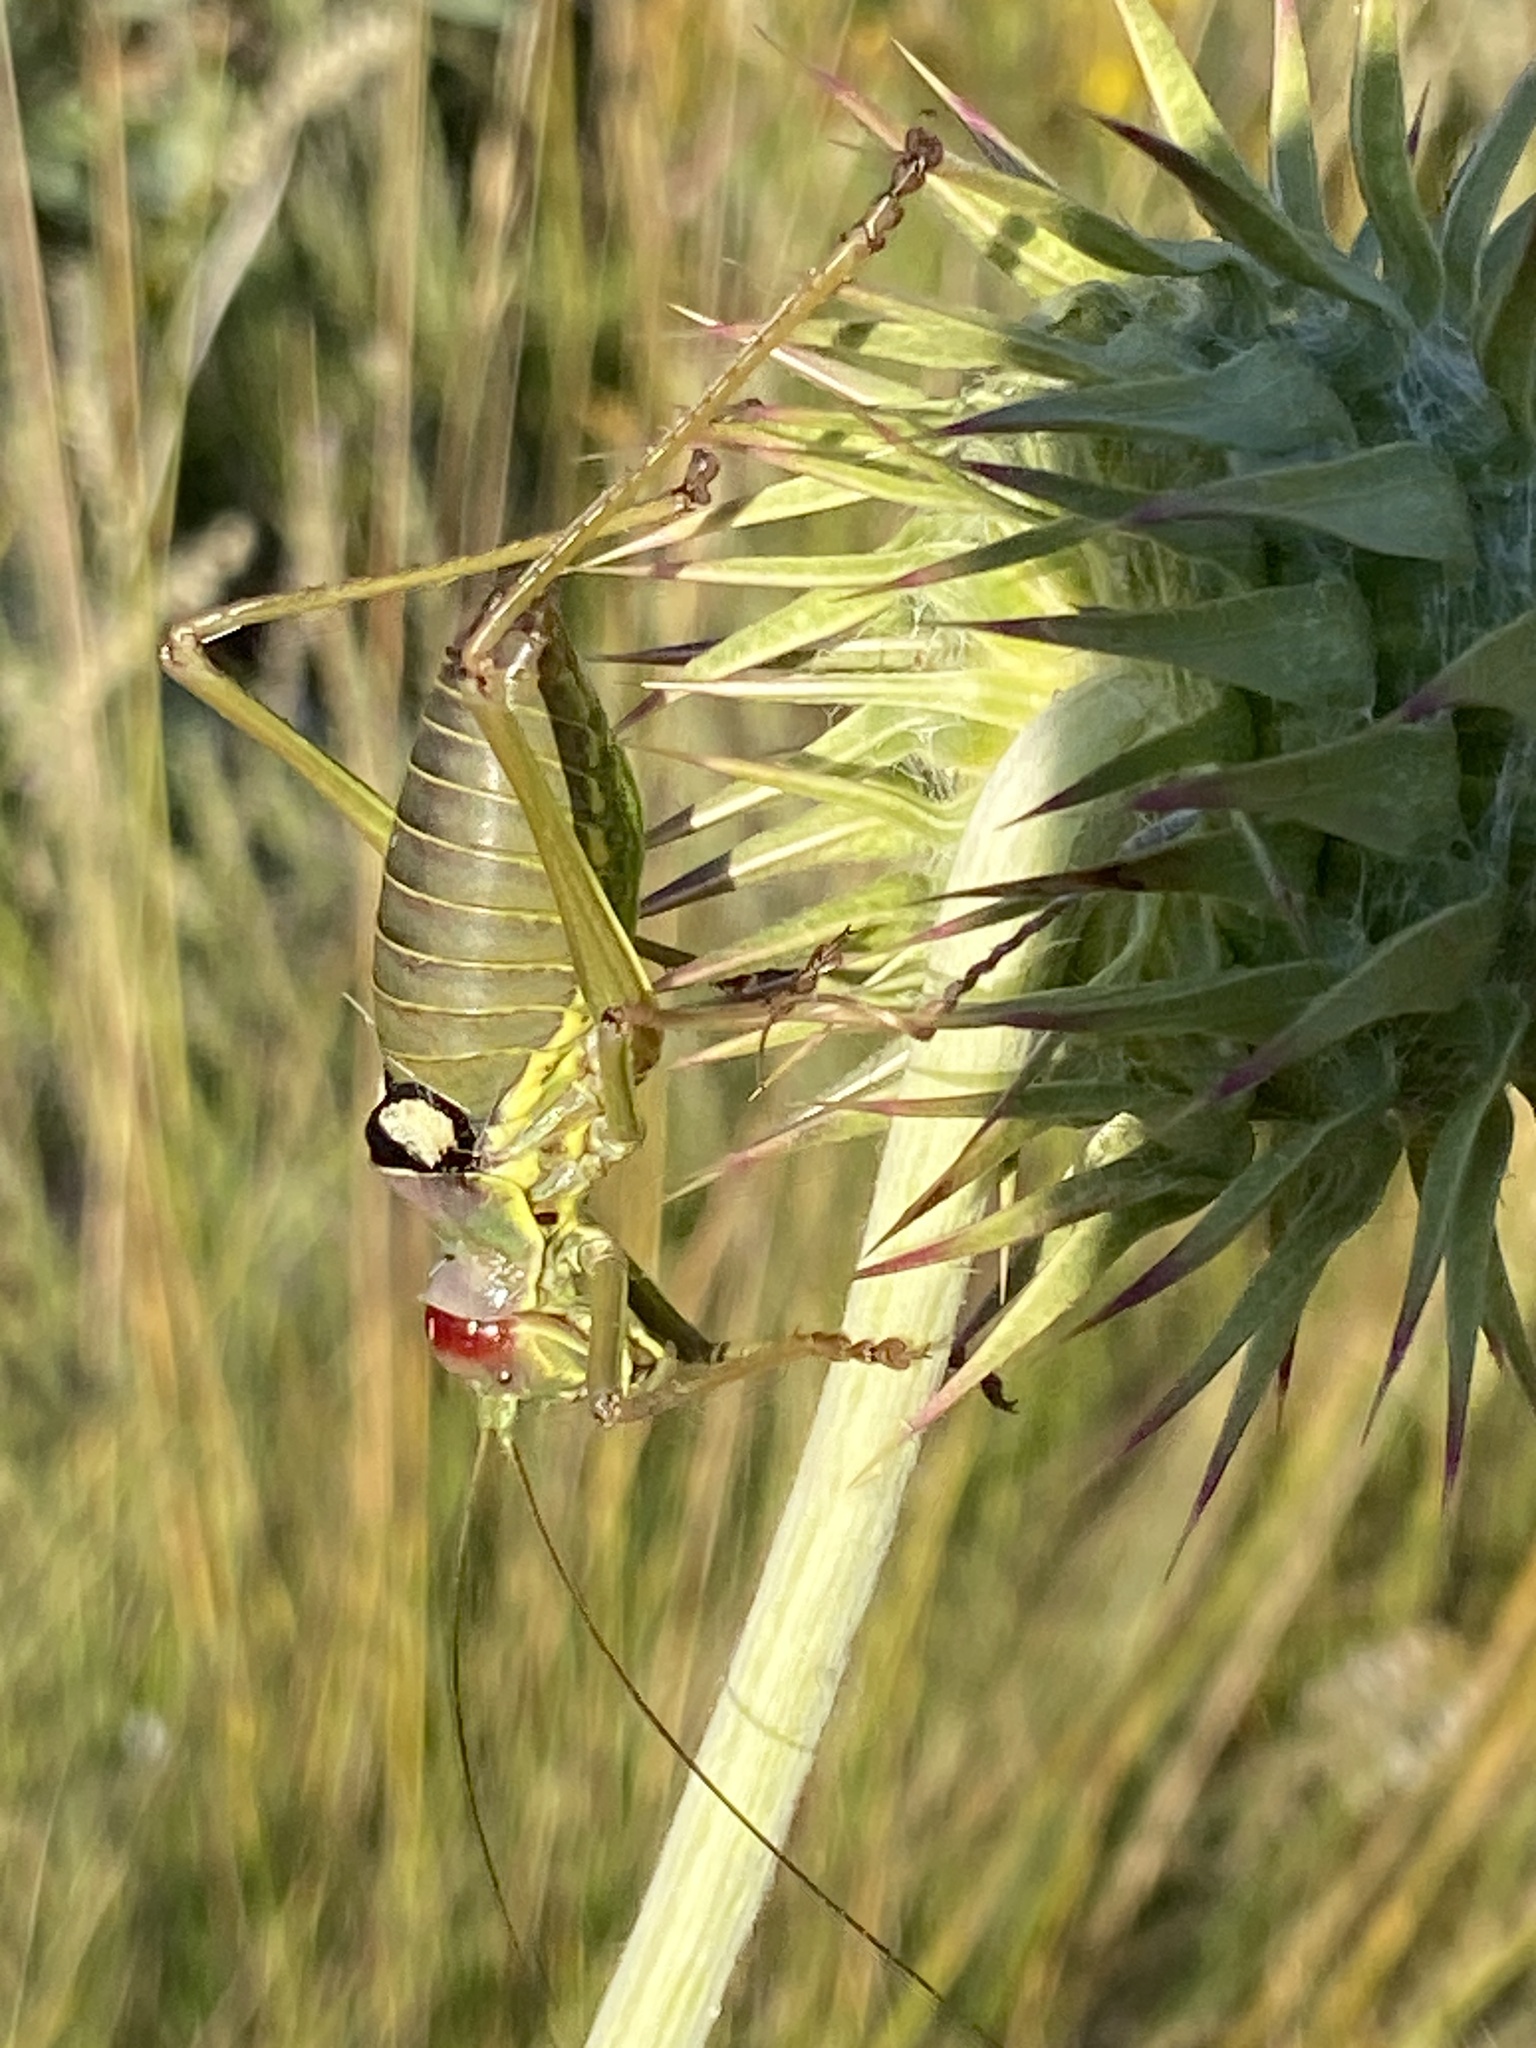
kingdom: Animalia
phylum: Arthropoda
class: Insecta
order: Orthoptera
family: Tettigoniidae
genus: Dinarippiger
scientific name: Dinarippiger discoidalis
